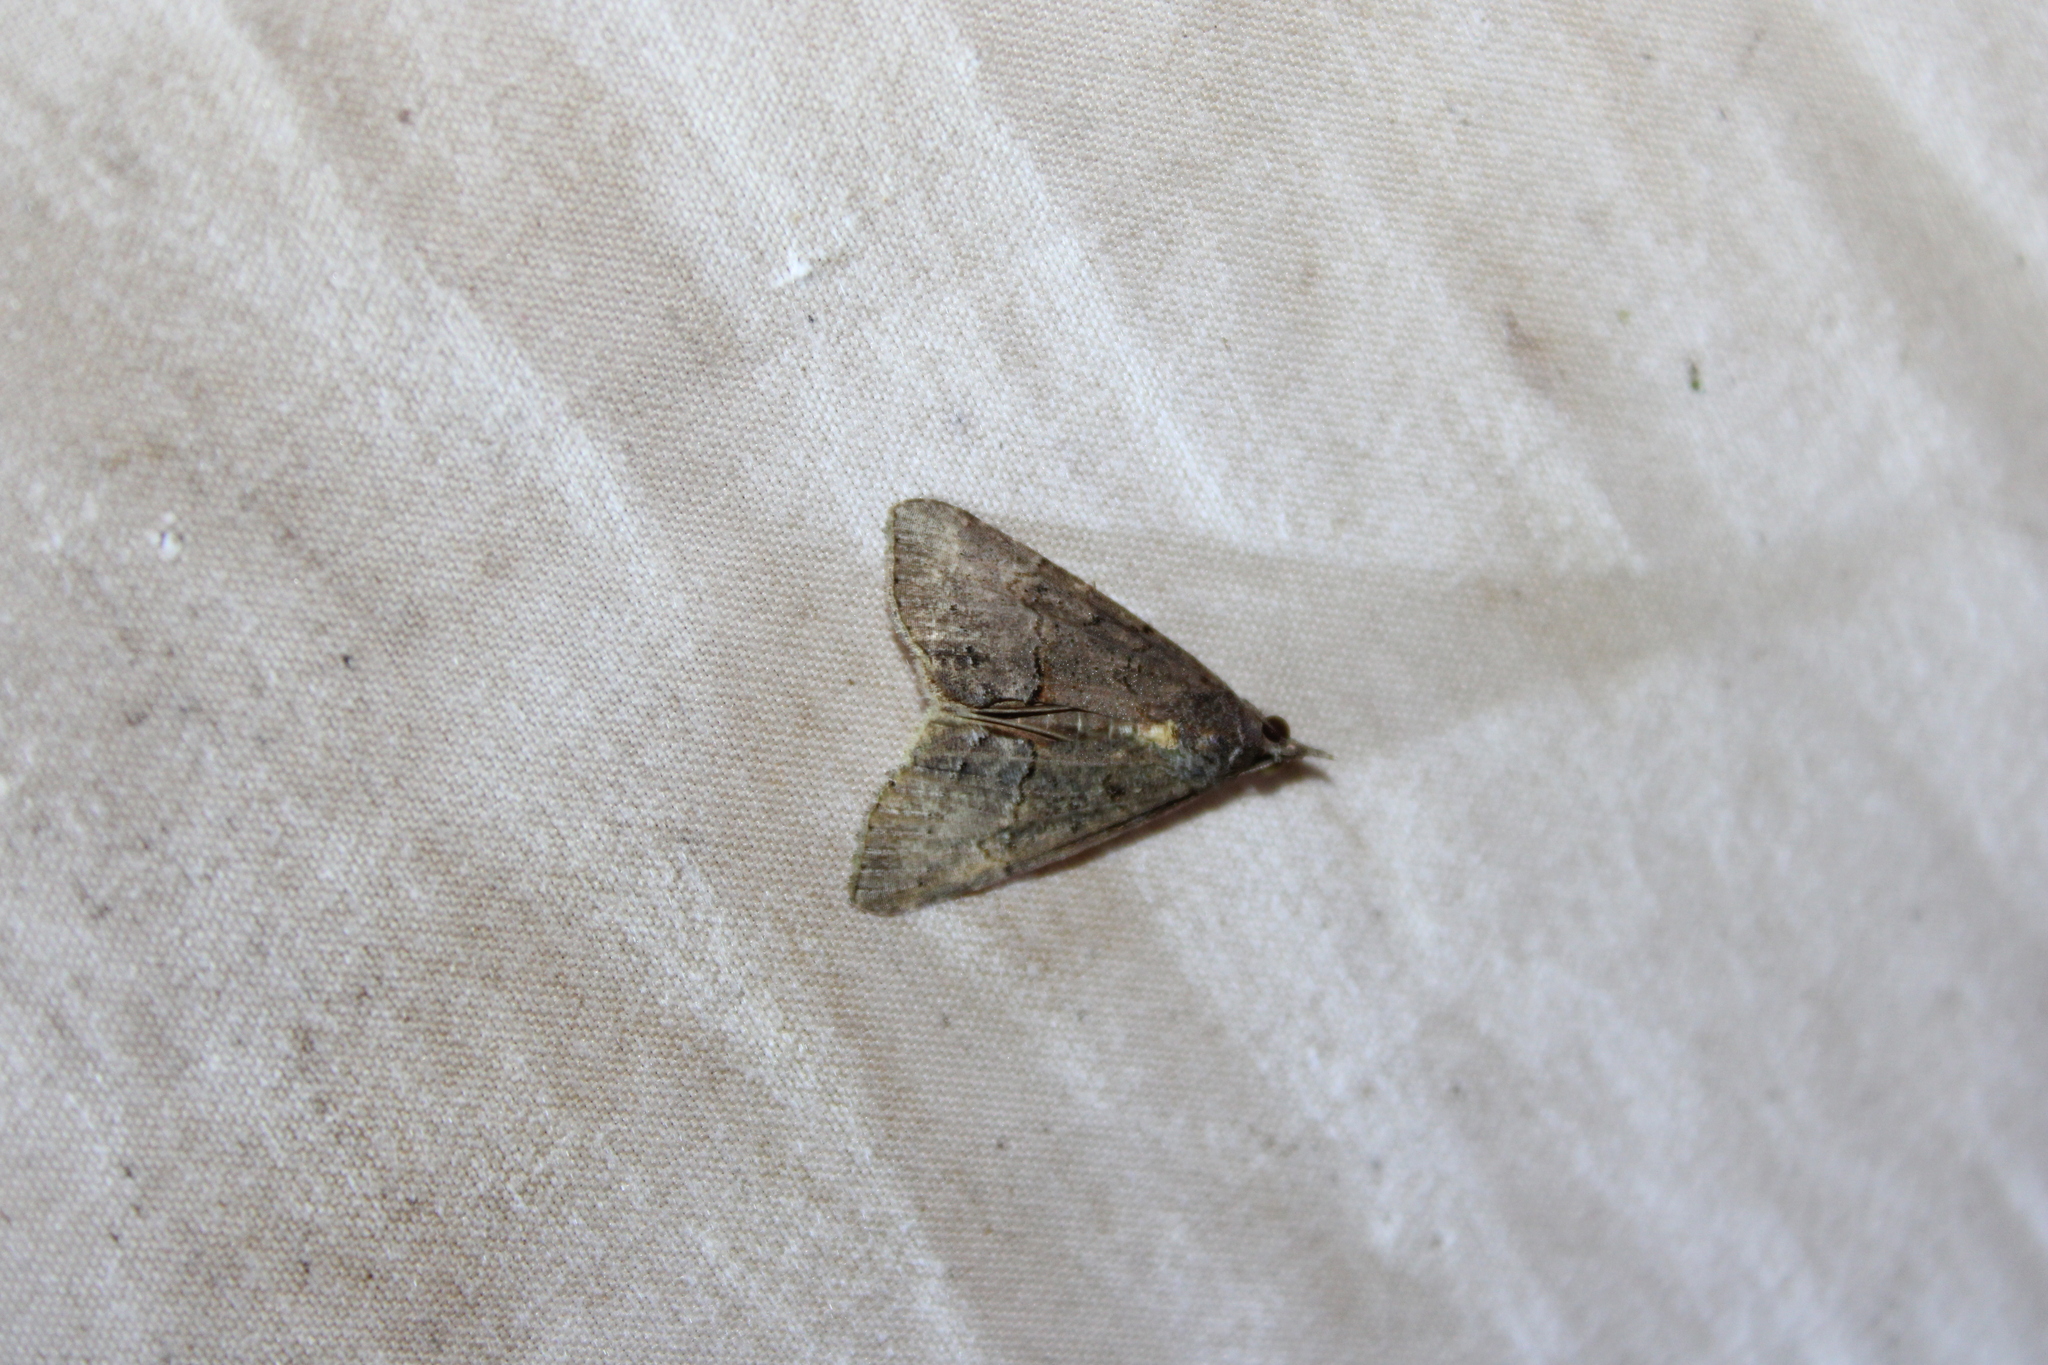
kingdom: Animalia
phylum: Arthropoda
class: Insecta
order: Lepidoptera
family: Erebidae
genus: Hypena
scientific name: Hypena scabra
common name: Green cloverworm
